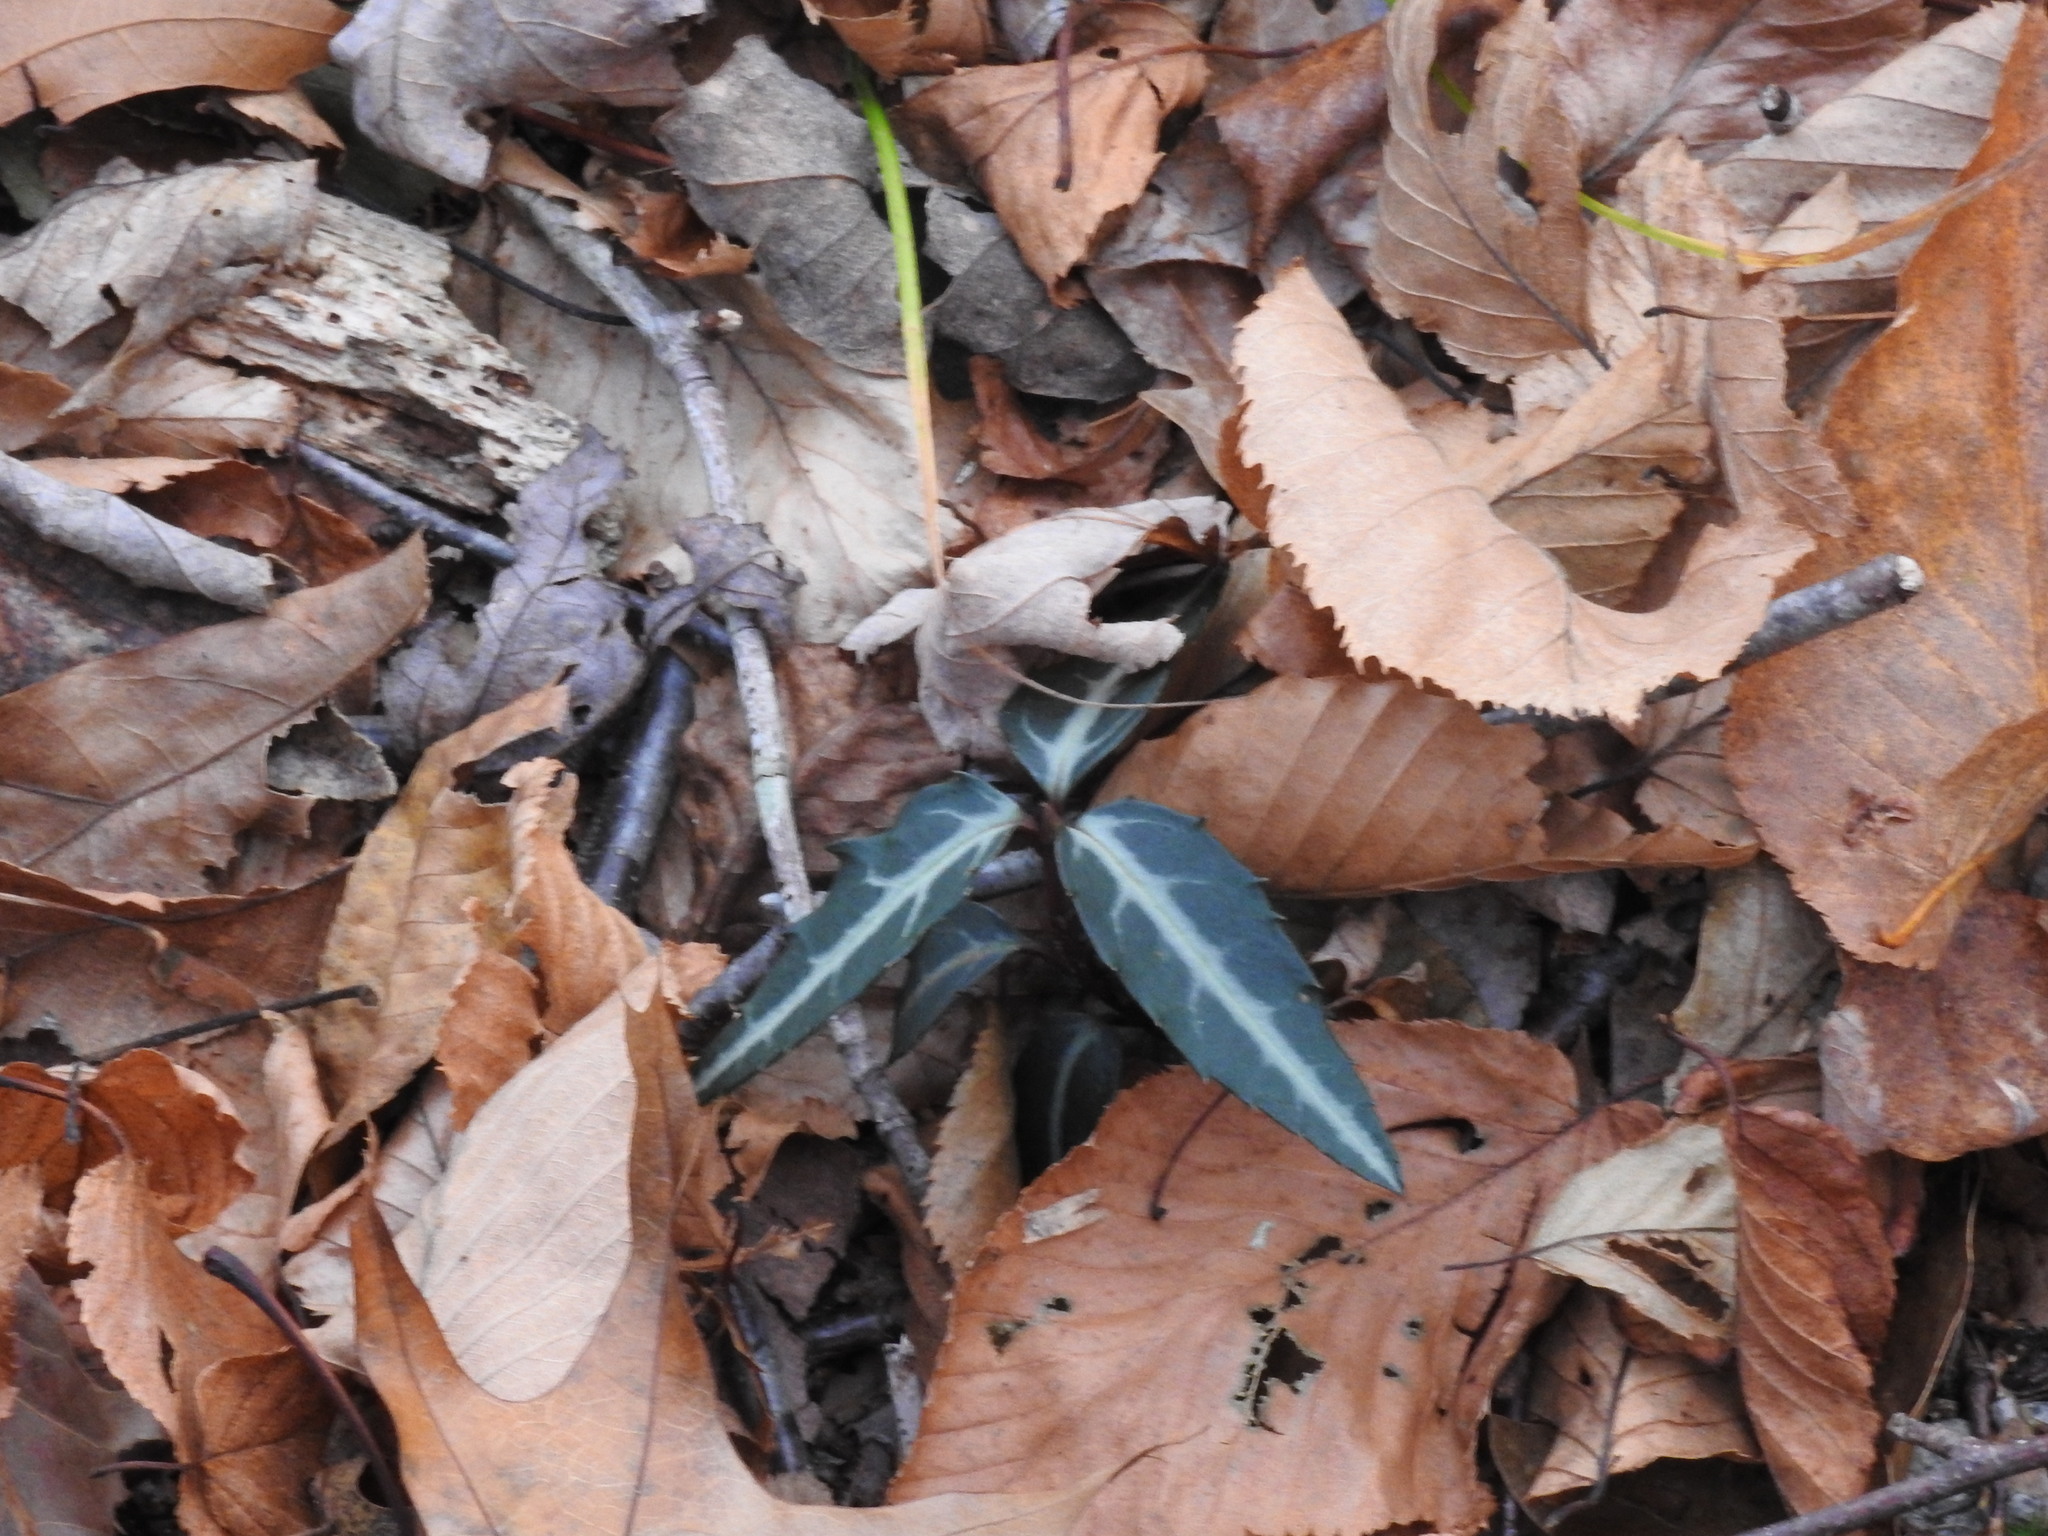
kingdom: Plantae
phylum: Tracheophyta
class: Magnoliopsida
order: Ericales
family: Ericaceae
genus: Chimaphila
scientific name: Chimaphila maculata
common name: Spotted pipsissewa
